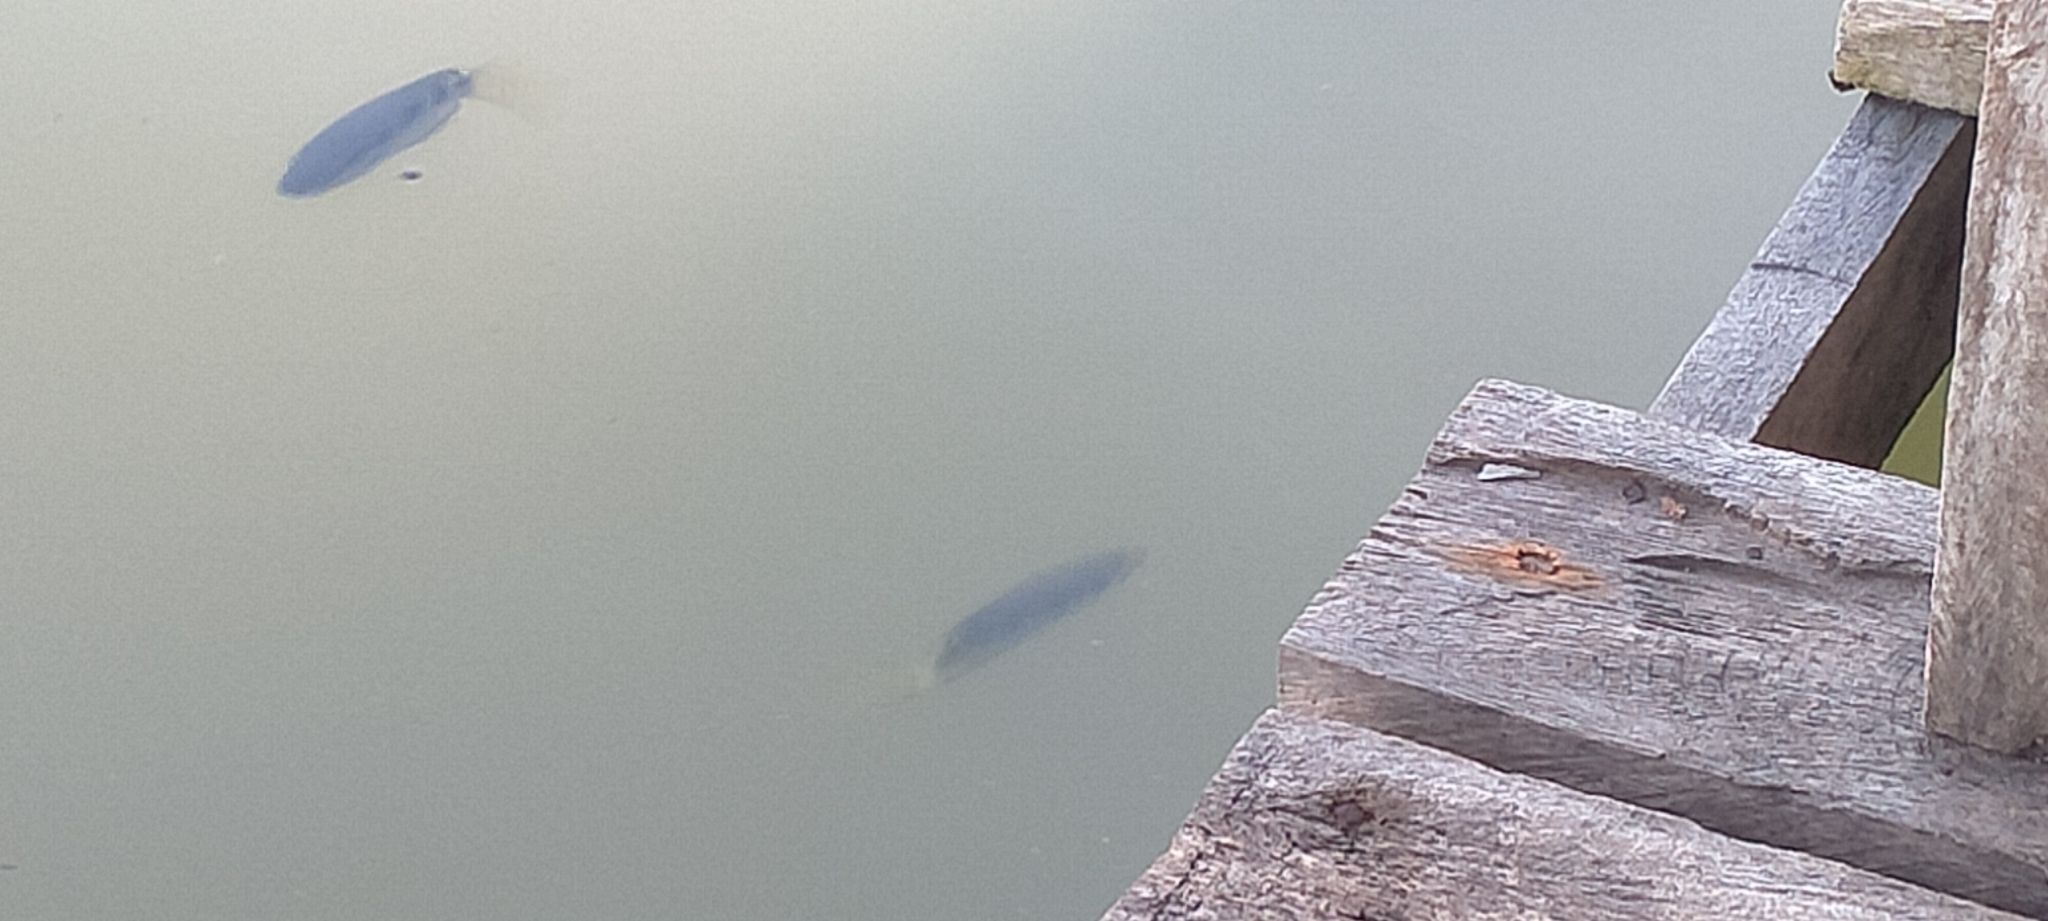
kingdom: Animalia
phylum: Chordata
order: Perciformes
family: Toxotidae
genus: Toxotes
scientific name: Toxotes jaculatrix
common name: Banded archerfish
